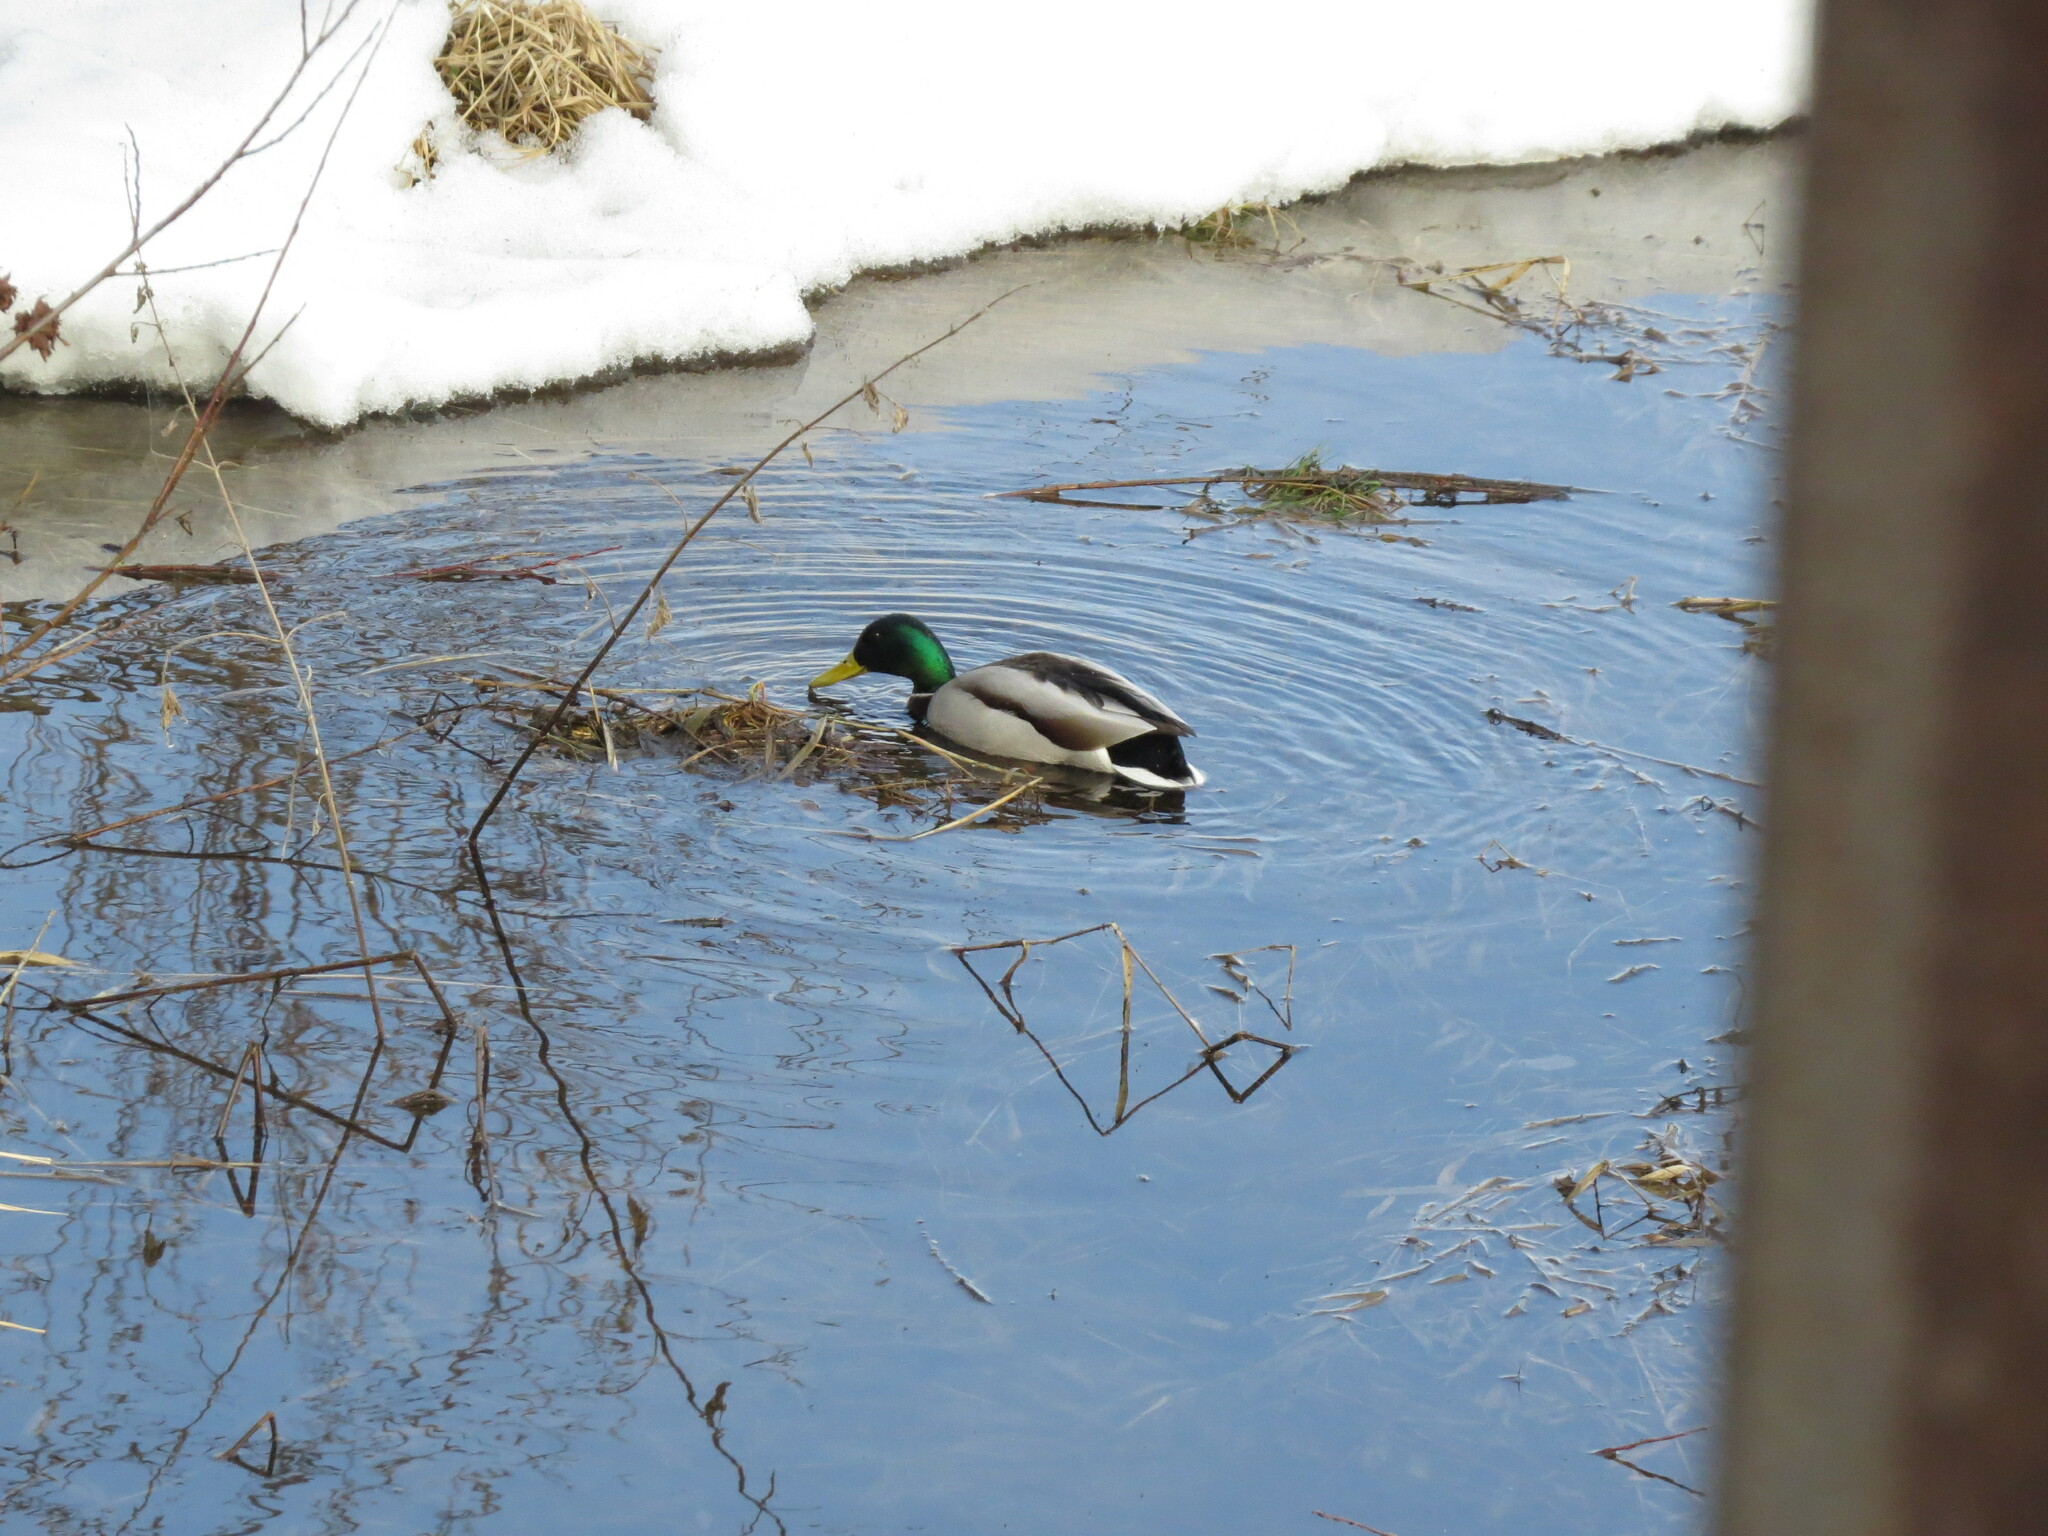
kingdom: Animalia
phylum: Chordata
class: Aves
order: Anseriformes
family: Anatidae
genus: Anas
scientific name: Anas platyrhynchos
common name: Mallard
